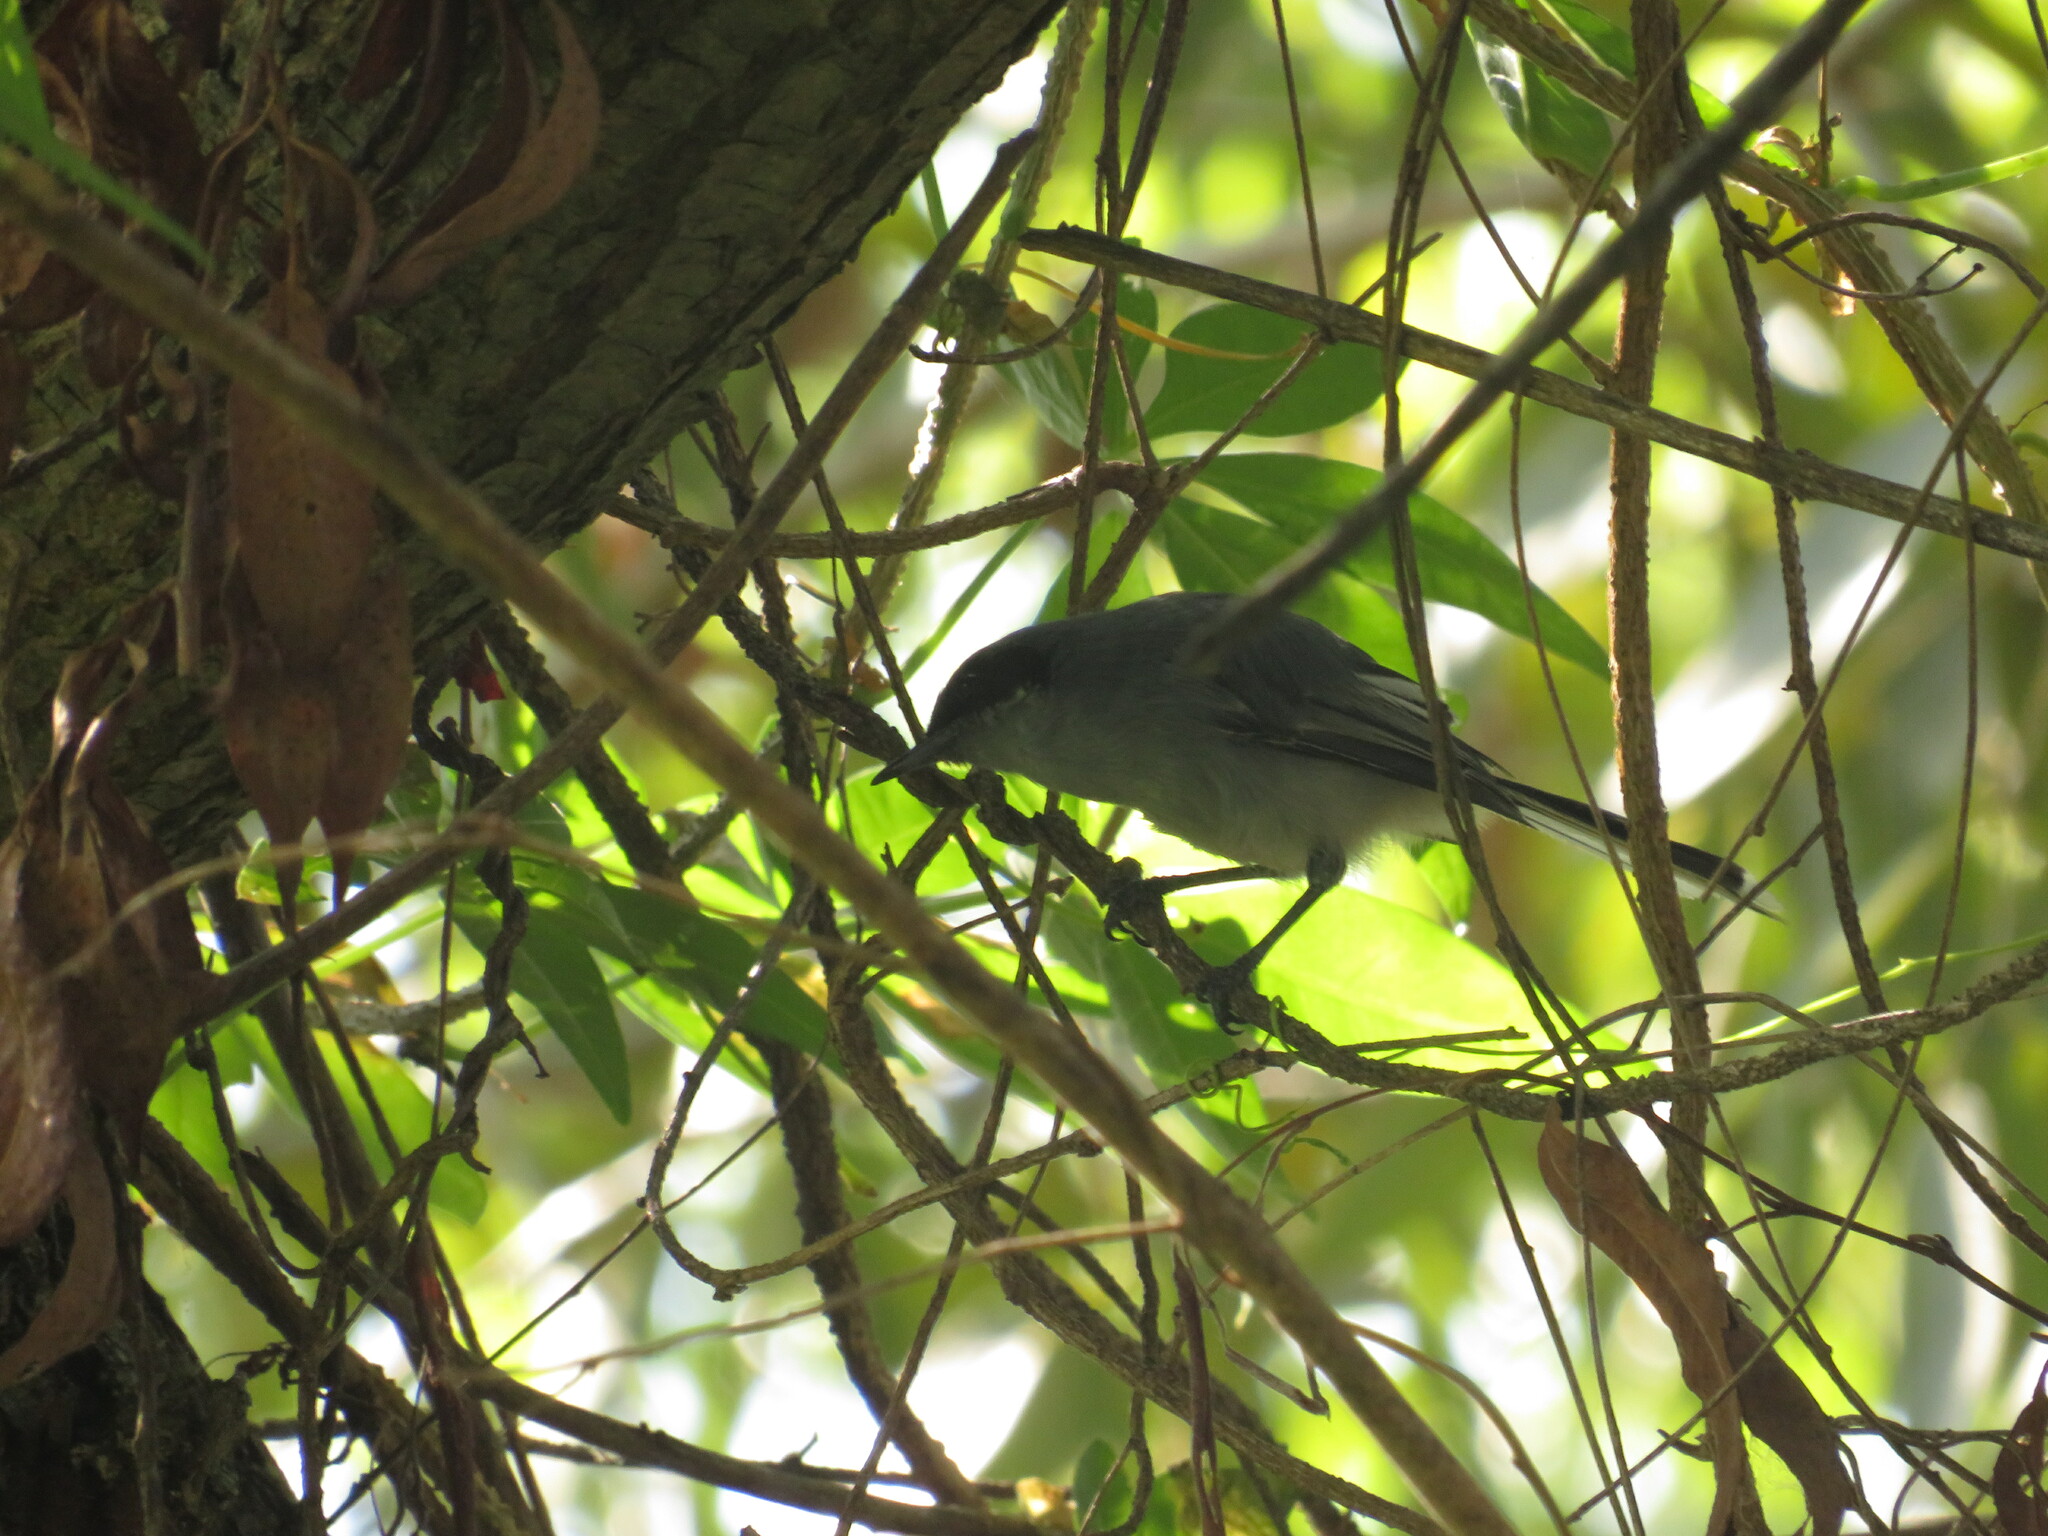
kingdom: Animalia
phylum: Chordata
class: Aves
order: Passeriformes
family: Polioptilidae
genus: Polioptila
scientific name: Polioptila dumicola
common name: Masked gnatcatcher
